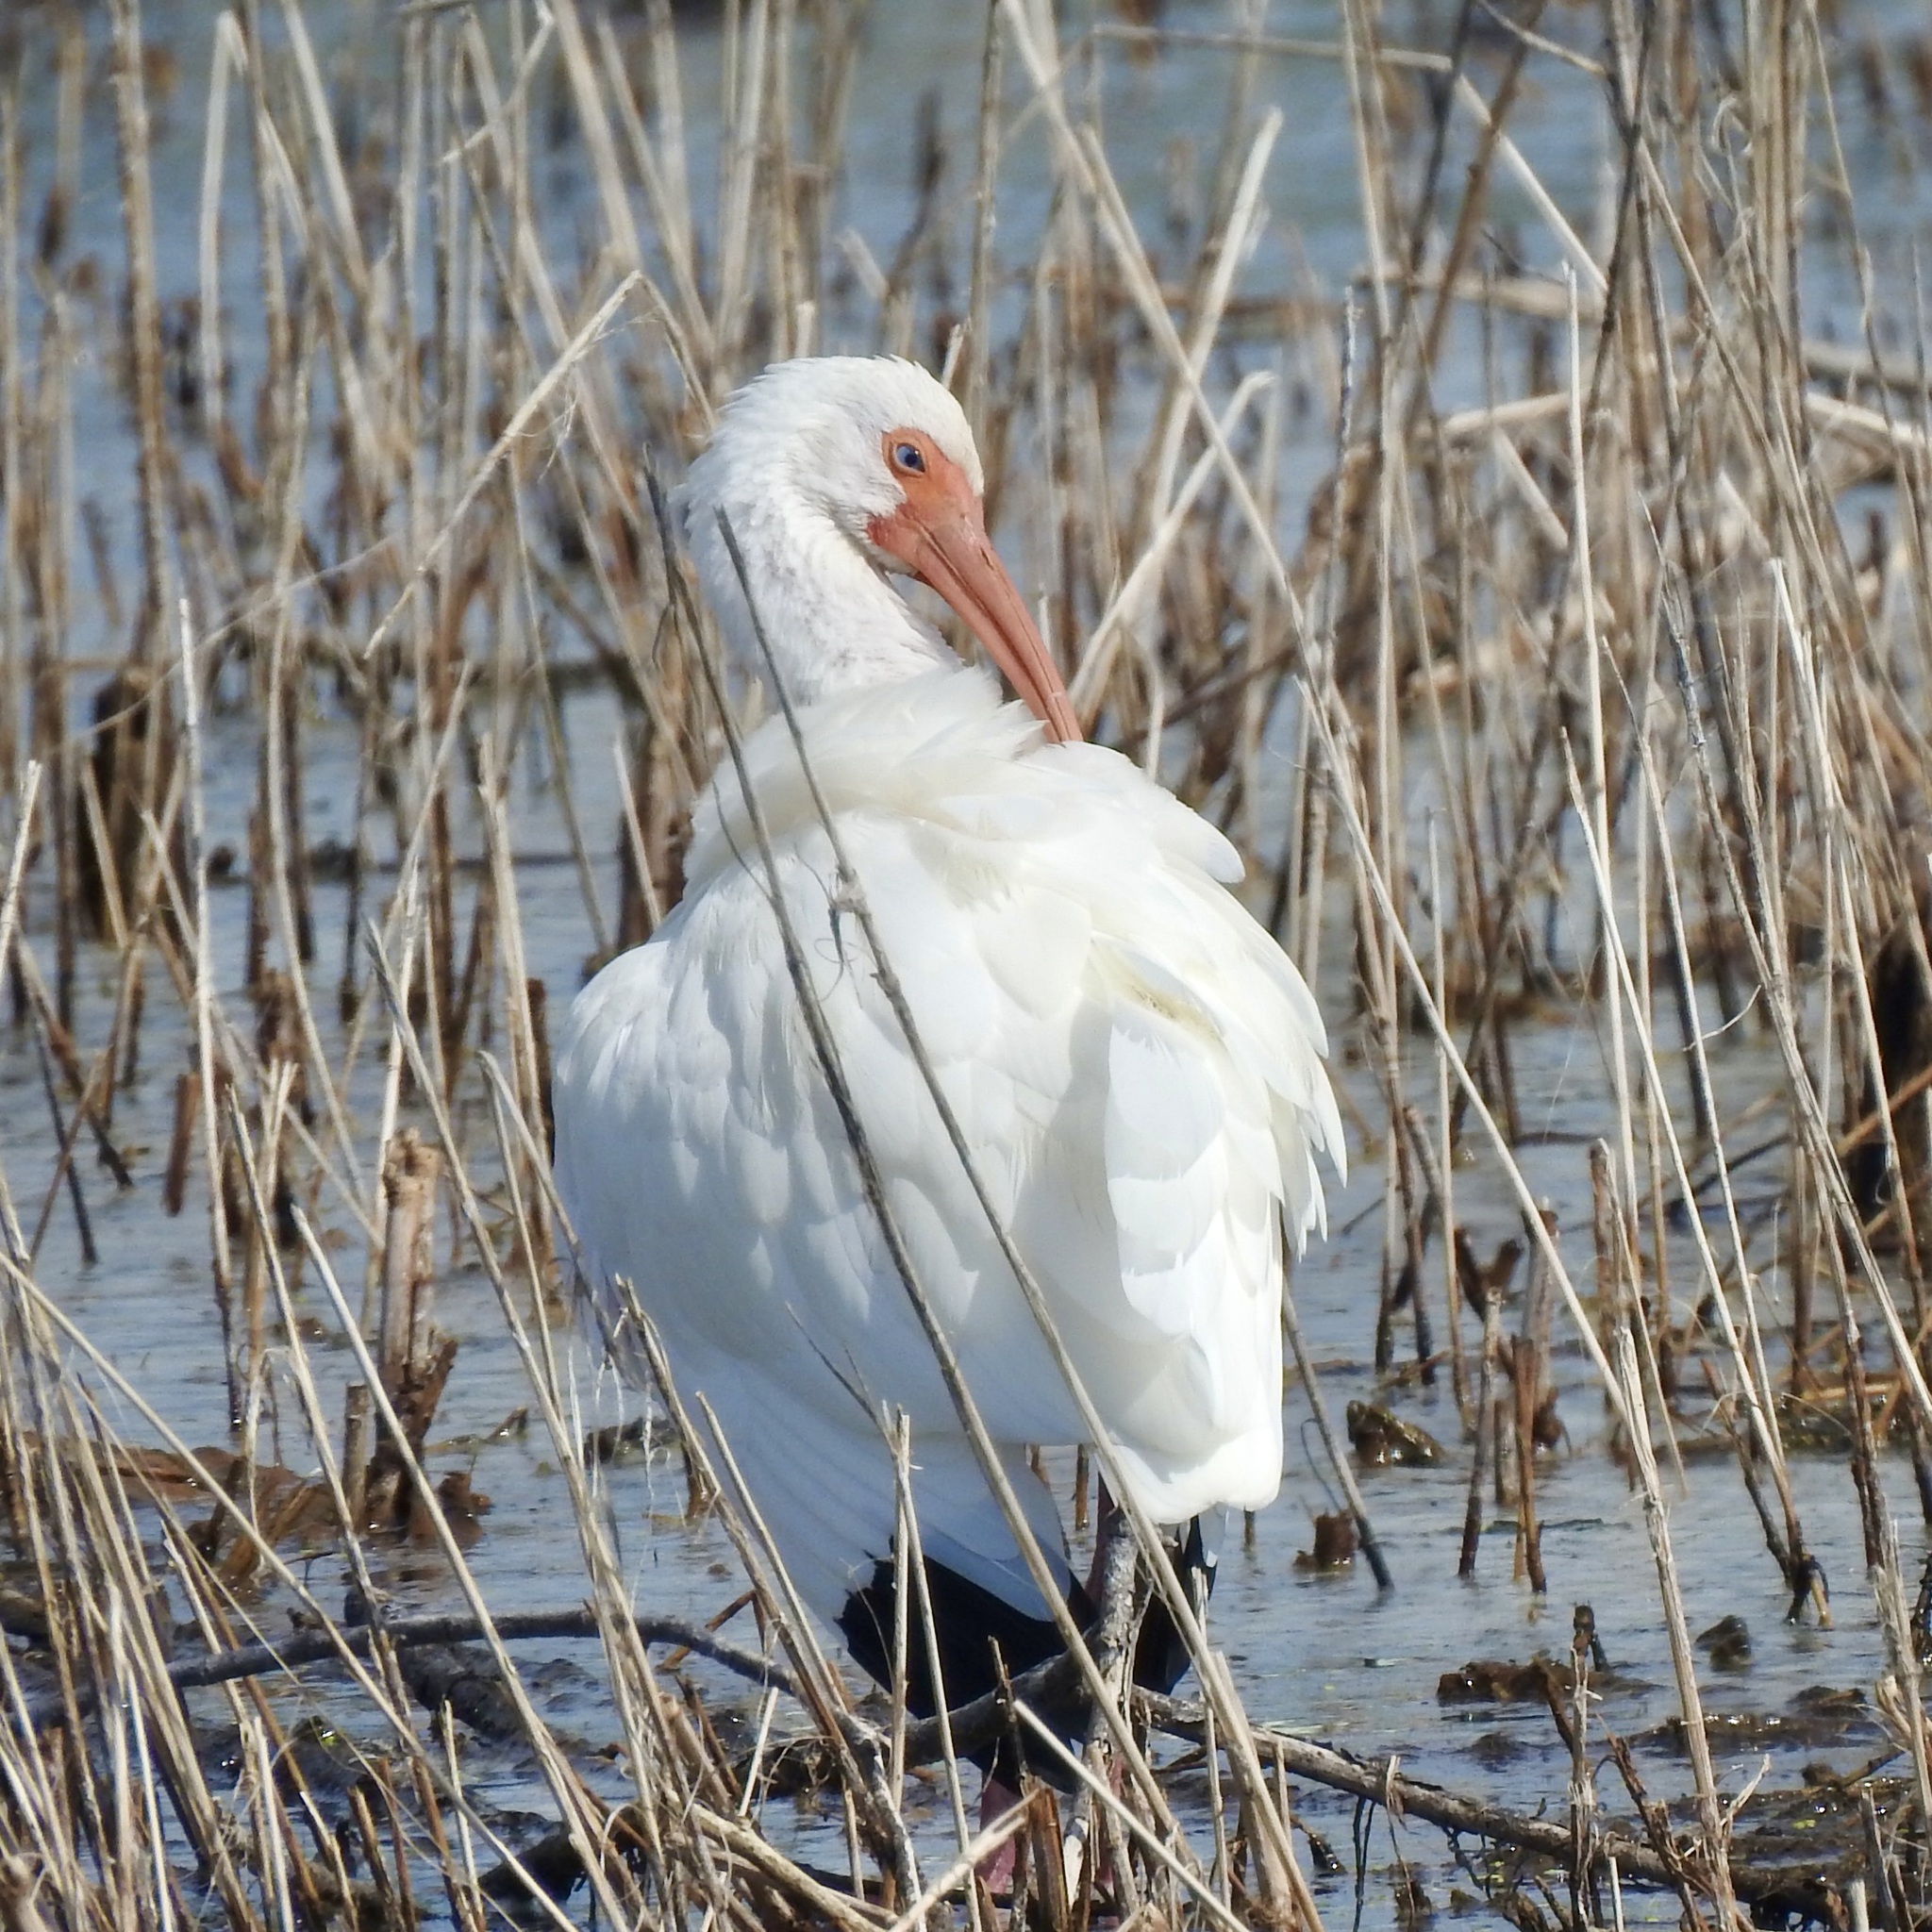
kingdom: Animalia
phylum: Chordata
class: Aves
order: Pelecaniformes
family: Threskiornithidae
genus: Eudocimus
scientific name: Eudocimus albus
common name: White ibis
